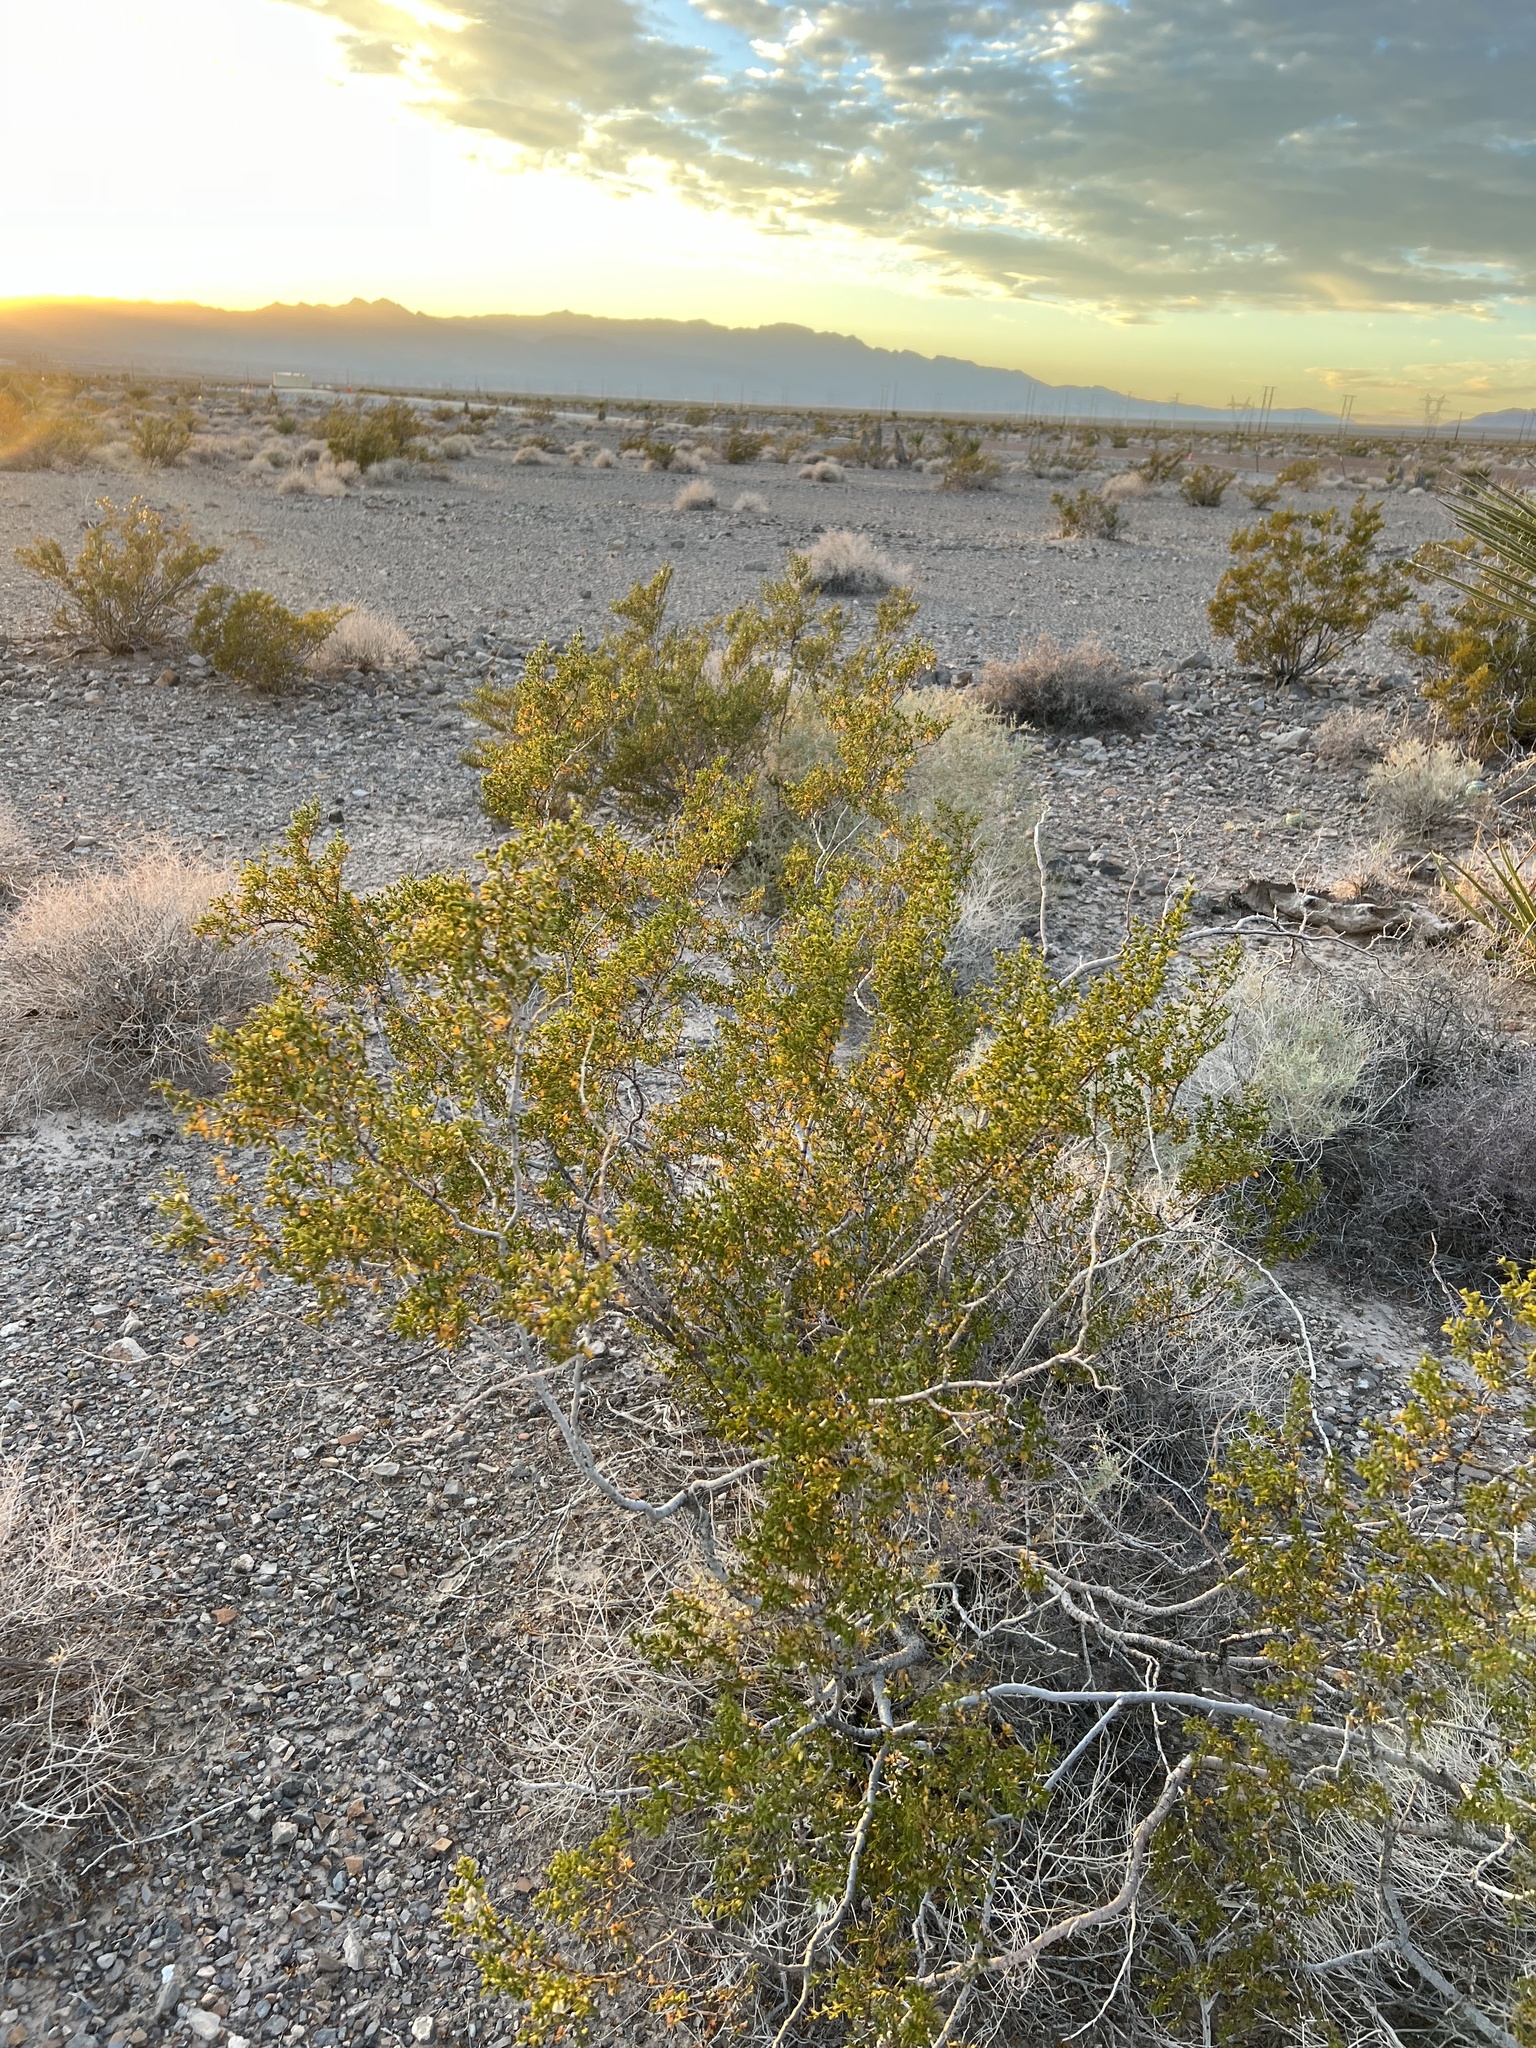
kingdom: Plantae
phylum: Tracheophyta
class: Magnoliopsida
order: Zygophyllales
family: Zygophyllaceae
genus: Larrea
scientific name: Larrea tridentata
